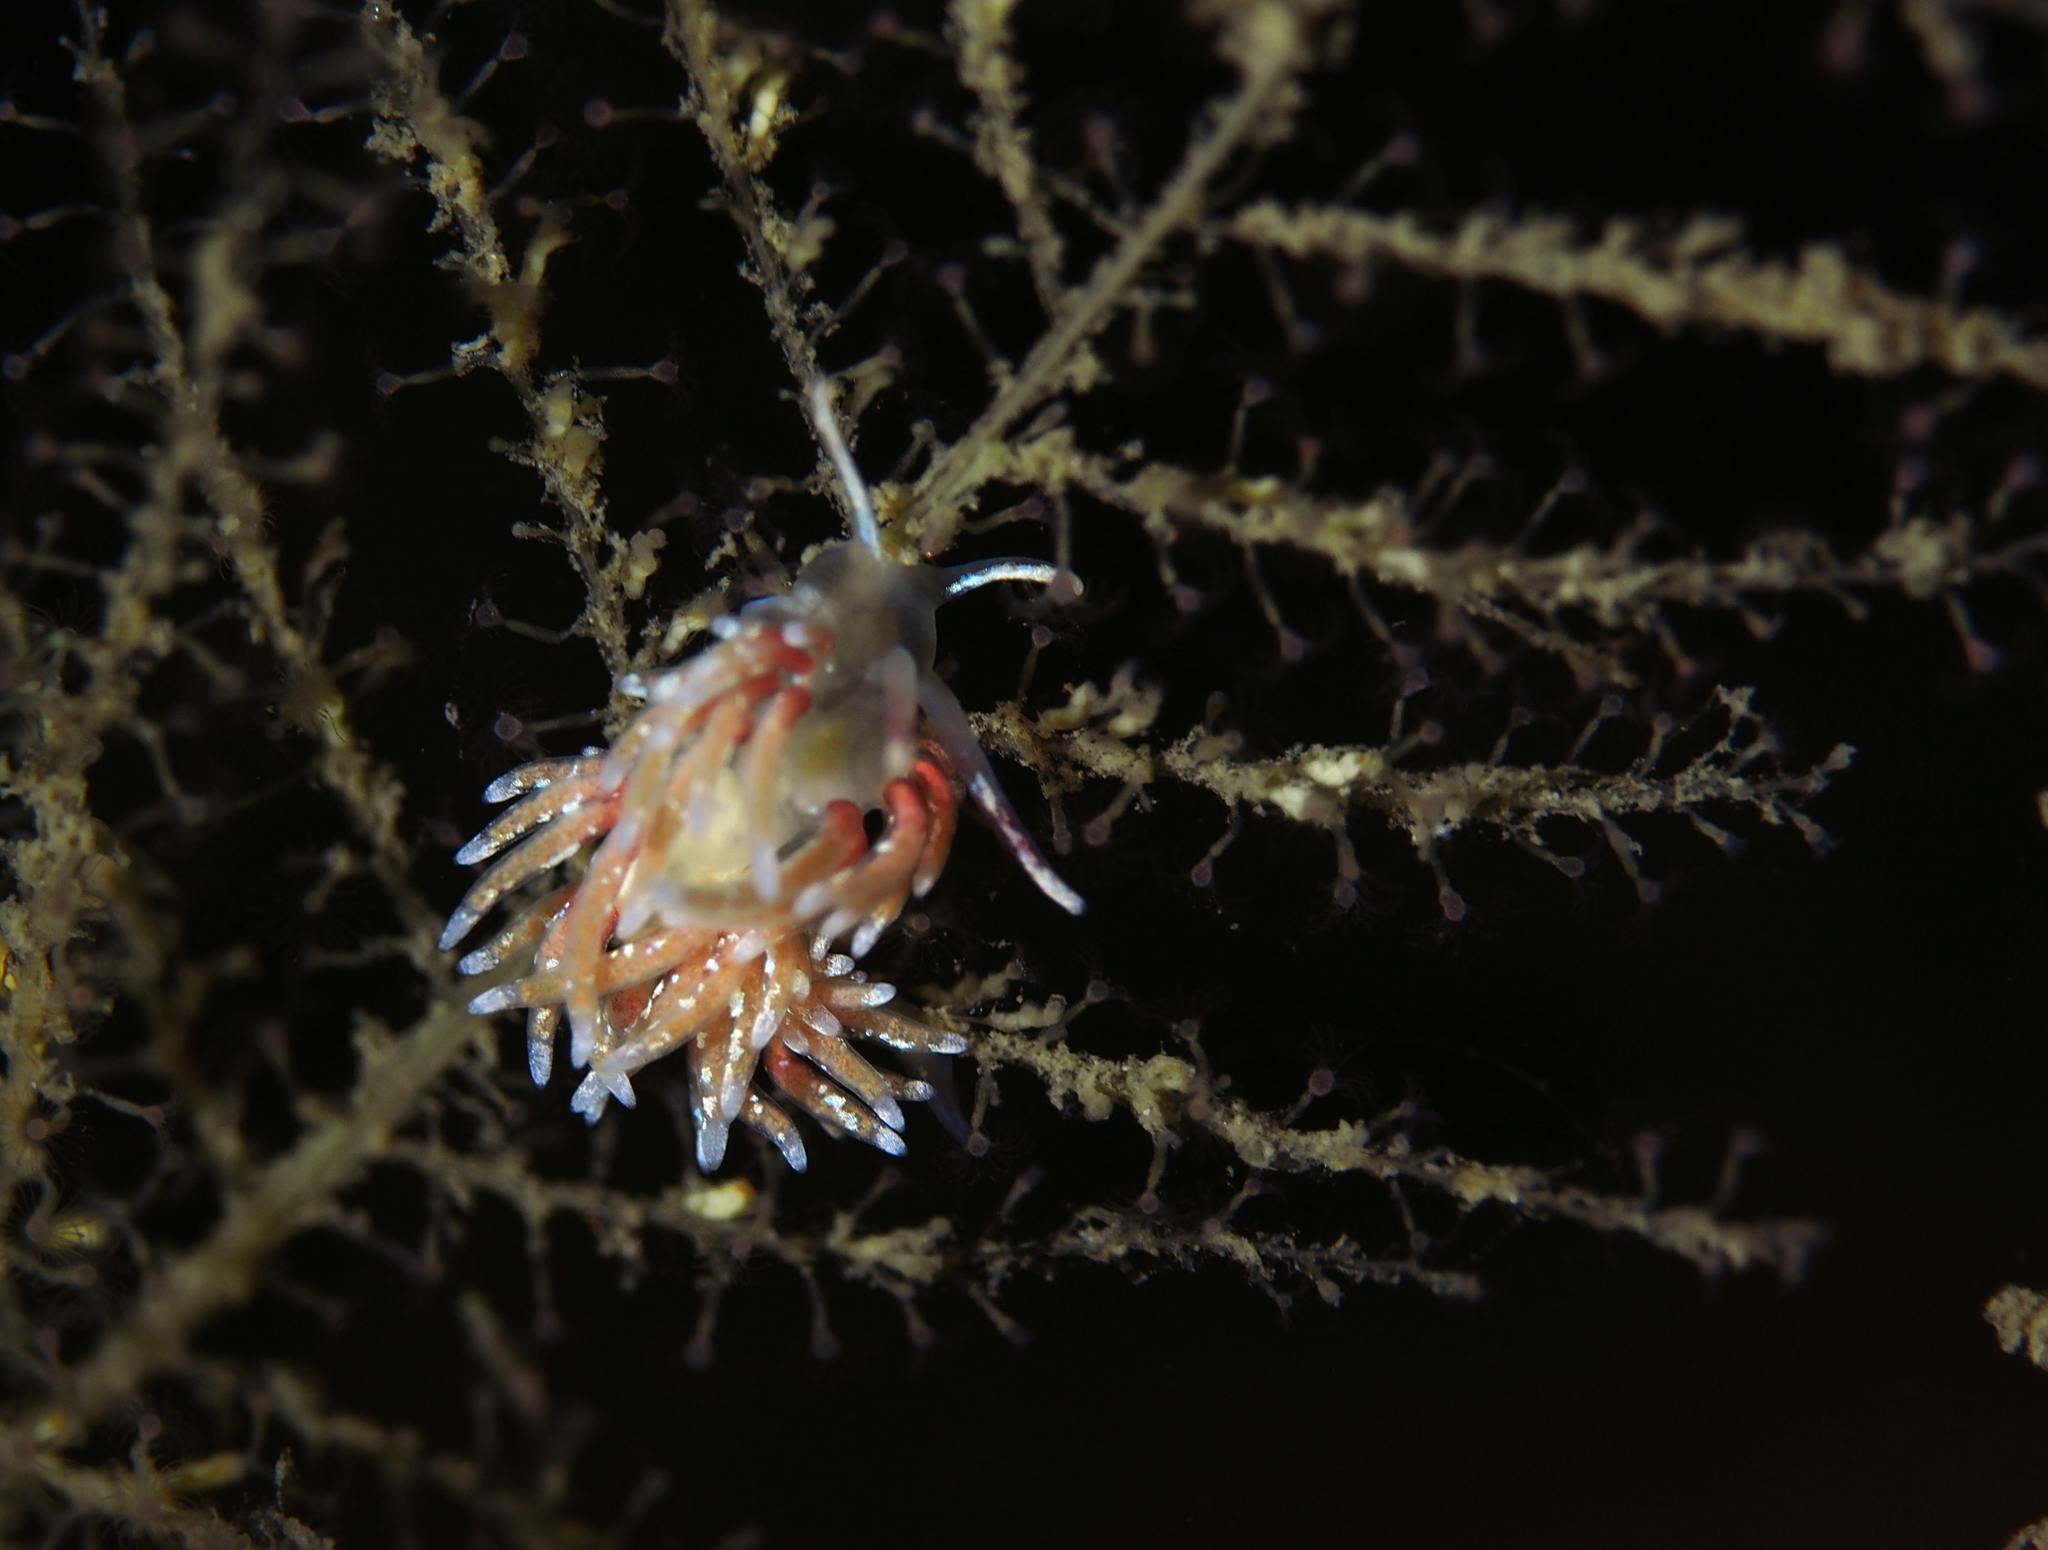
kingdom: Animalia
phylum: Mollusca
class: Gastropoda
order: Nudibranchia
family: Trinchesiidae
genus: Rubramoena
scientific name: Rubramoena rubescens
